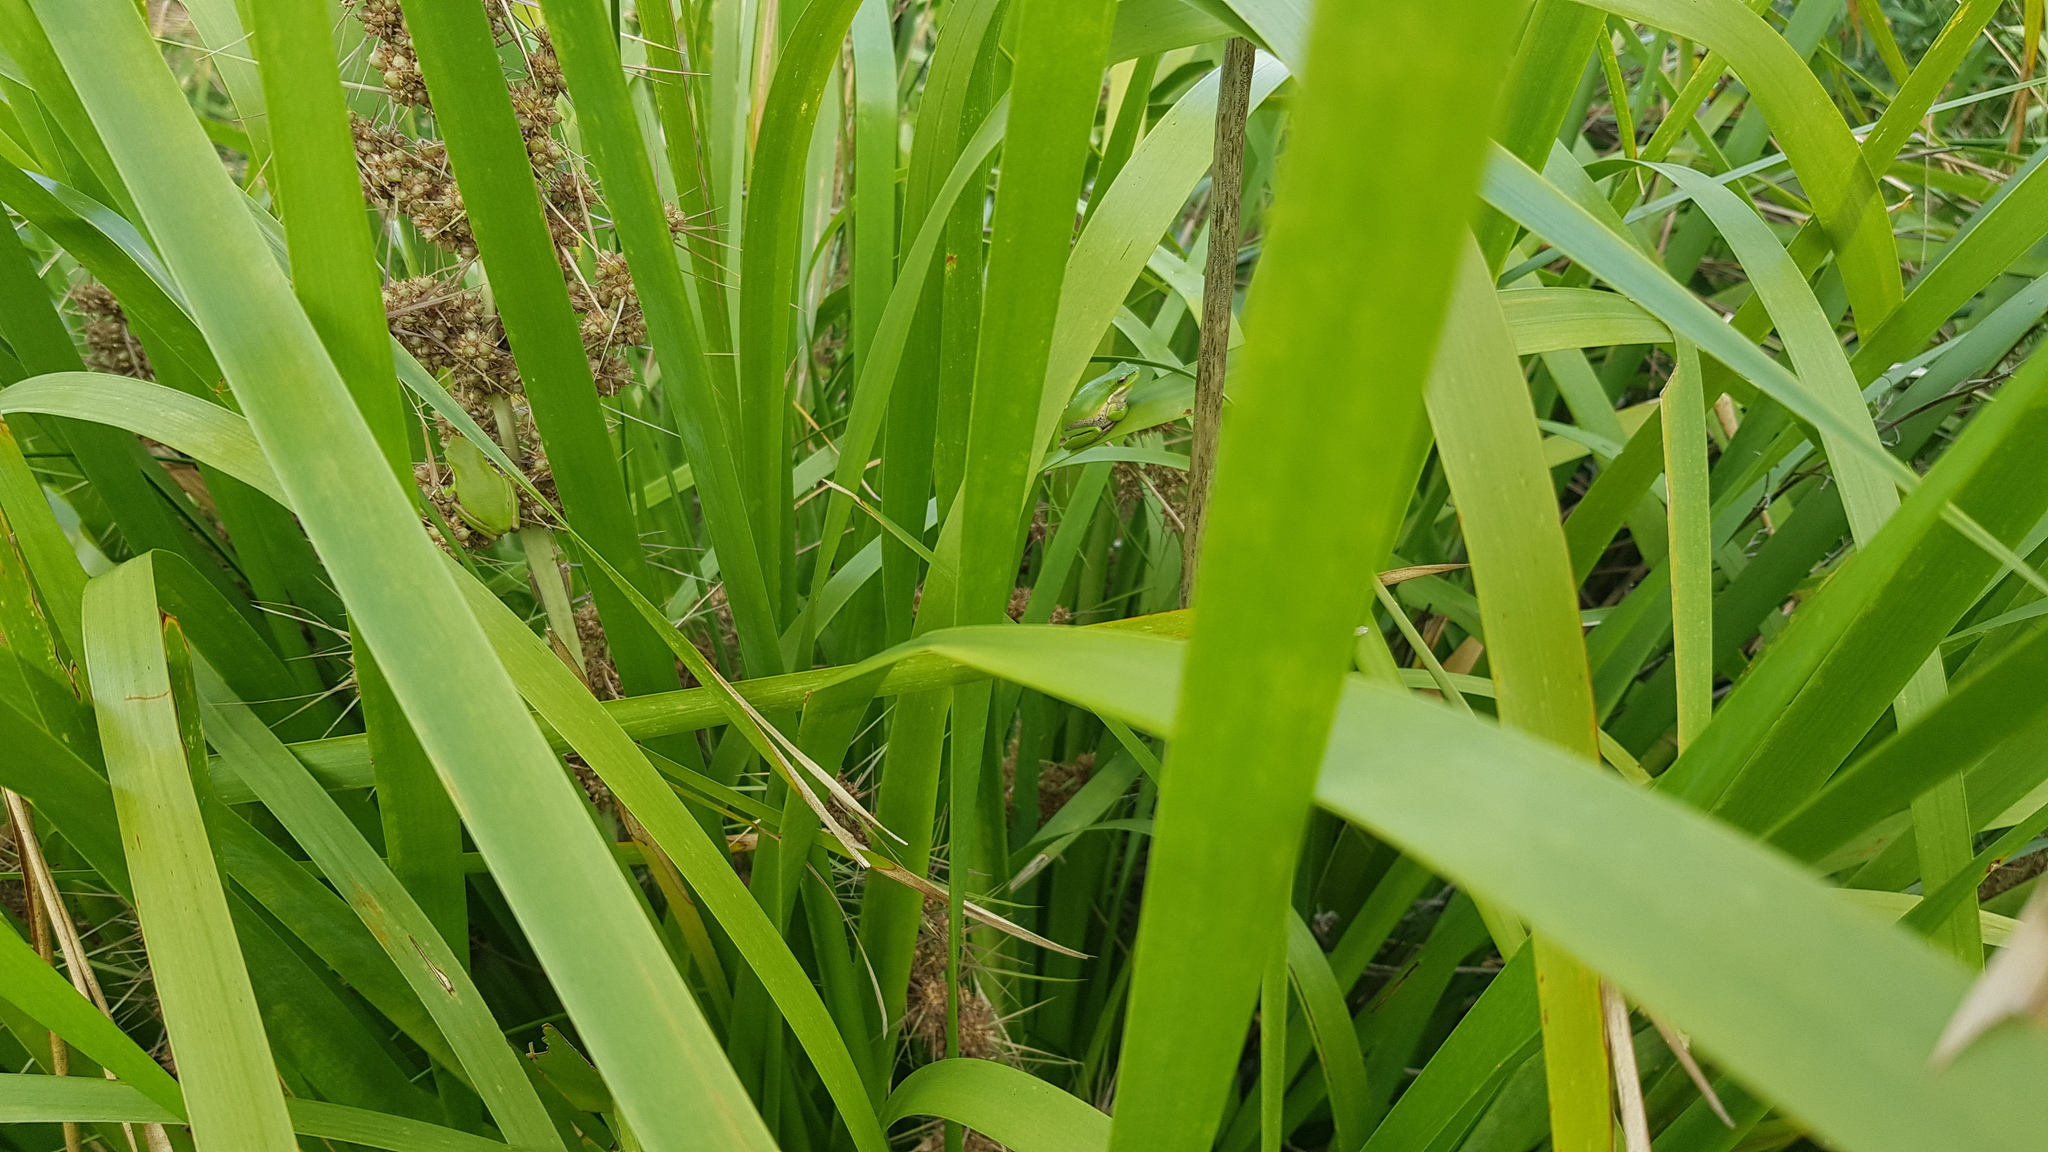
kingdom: Animalia
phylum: Chordata
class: Amphibia
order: Anura
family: Pelodryadidae
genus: Litoria
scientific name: Litoria fallax
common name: Eastern dwarf treefrog
